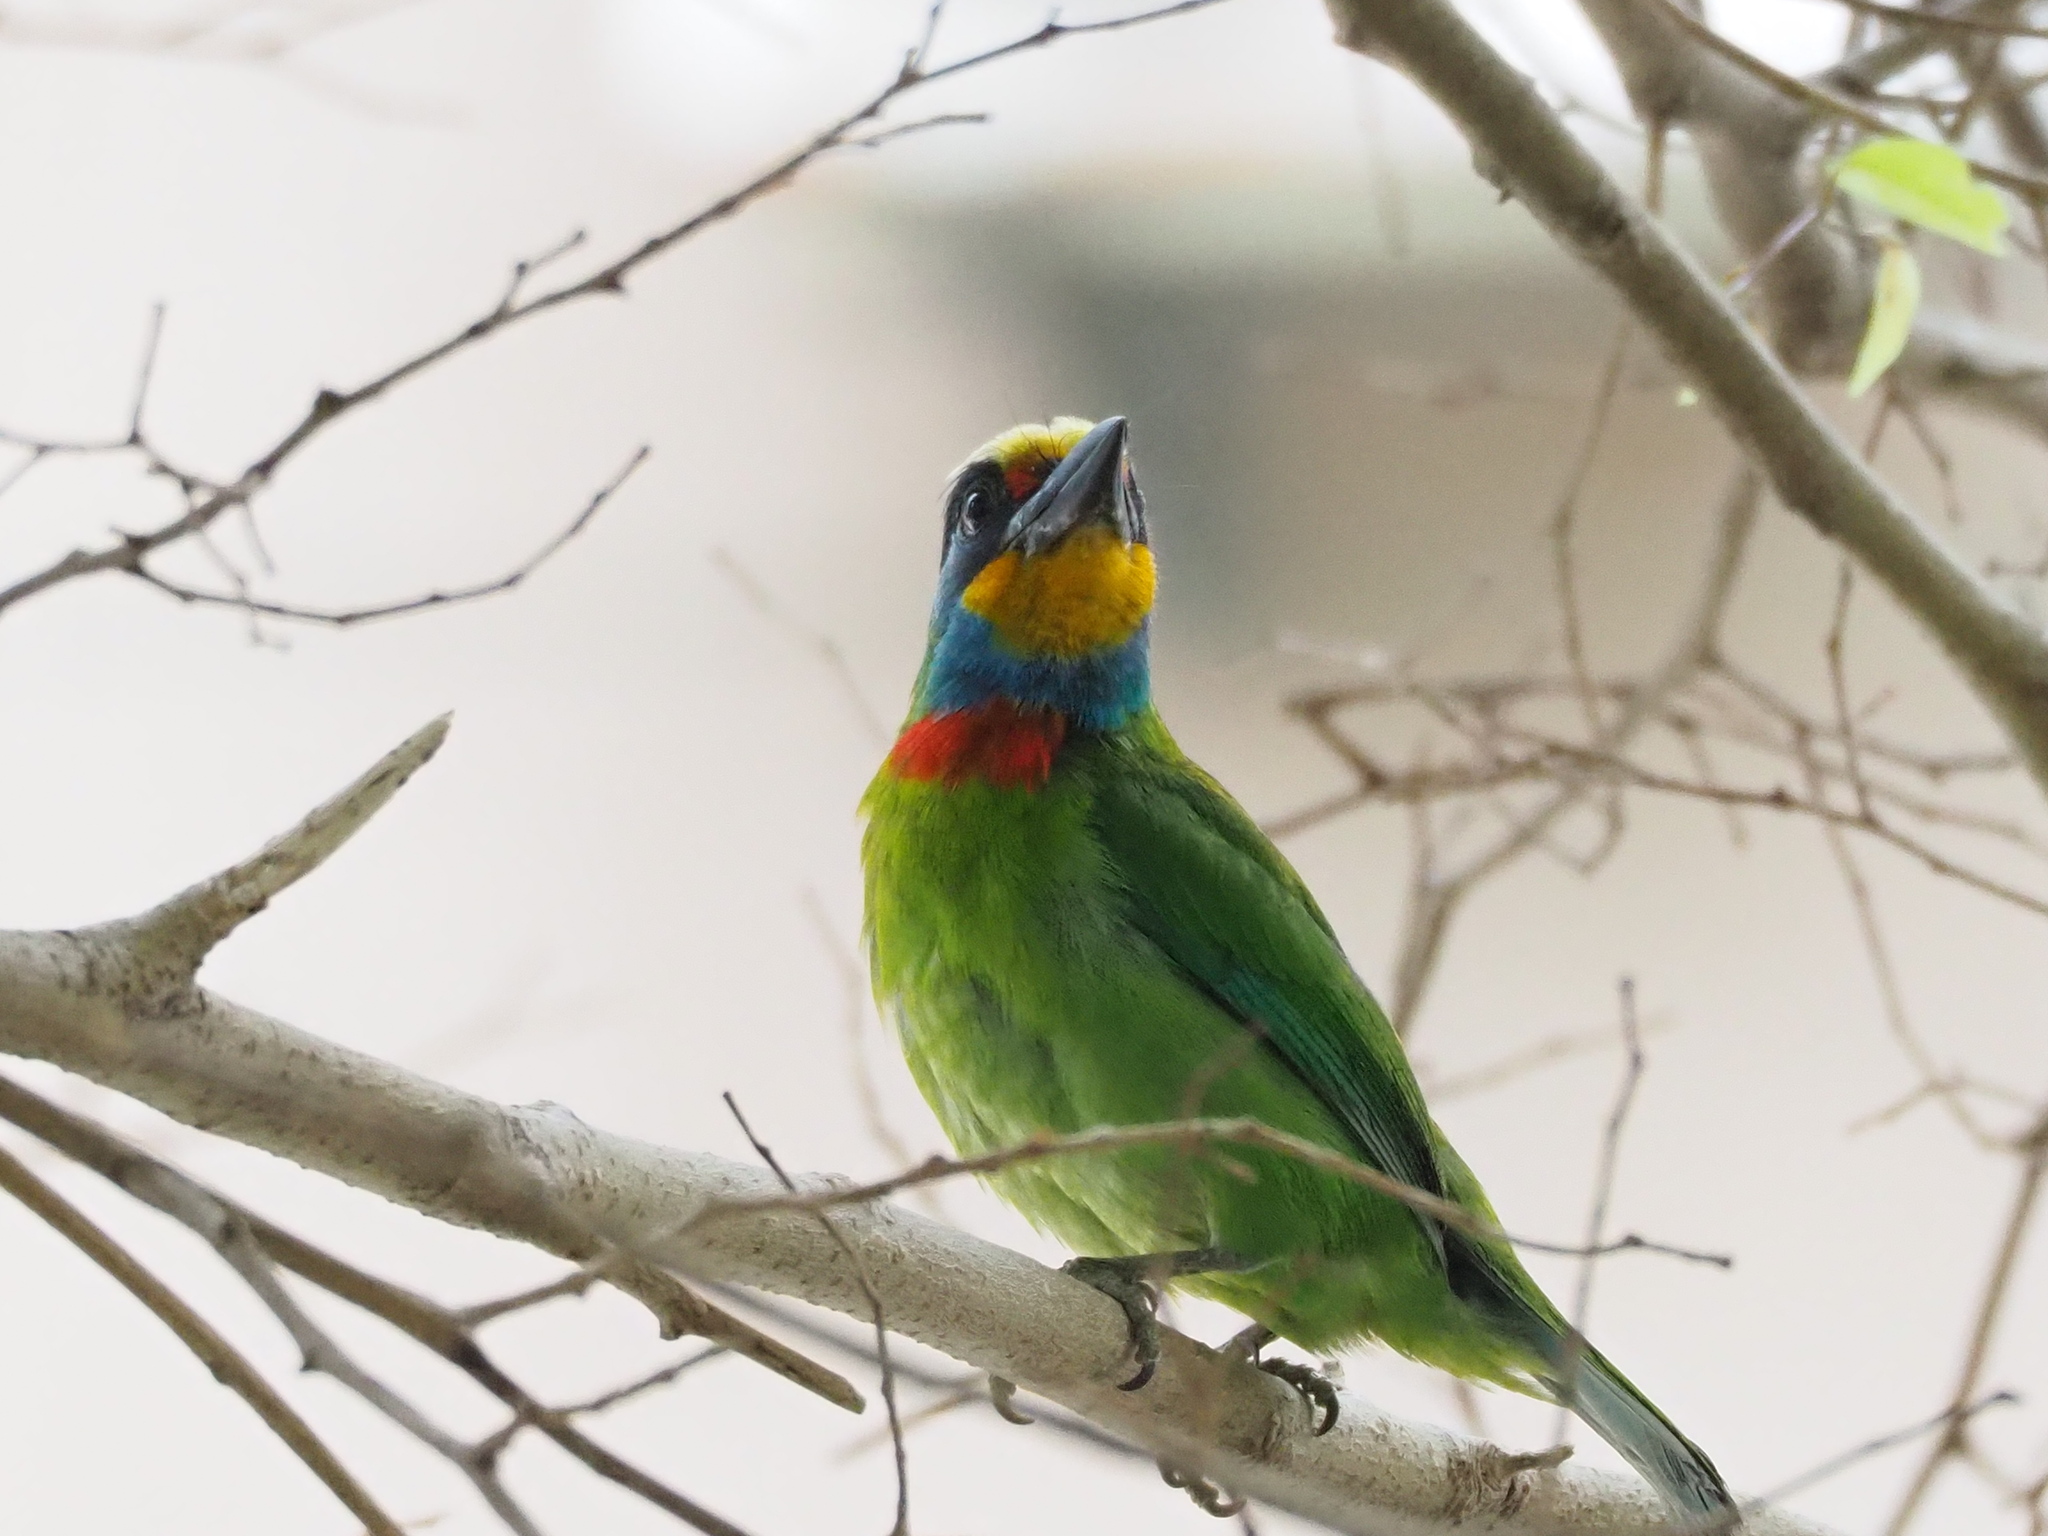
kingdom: Animalia
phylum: Chordata
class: Aves
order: Piciformes
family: Megalaimidae
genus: Psilopogon
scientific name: Psilopogon nuchalis
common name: Taiwan barbet
